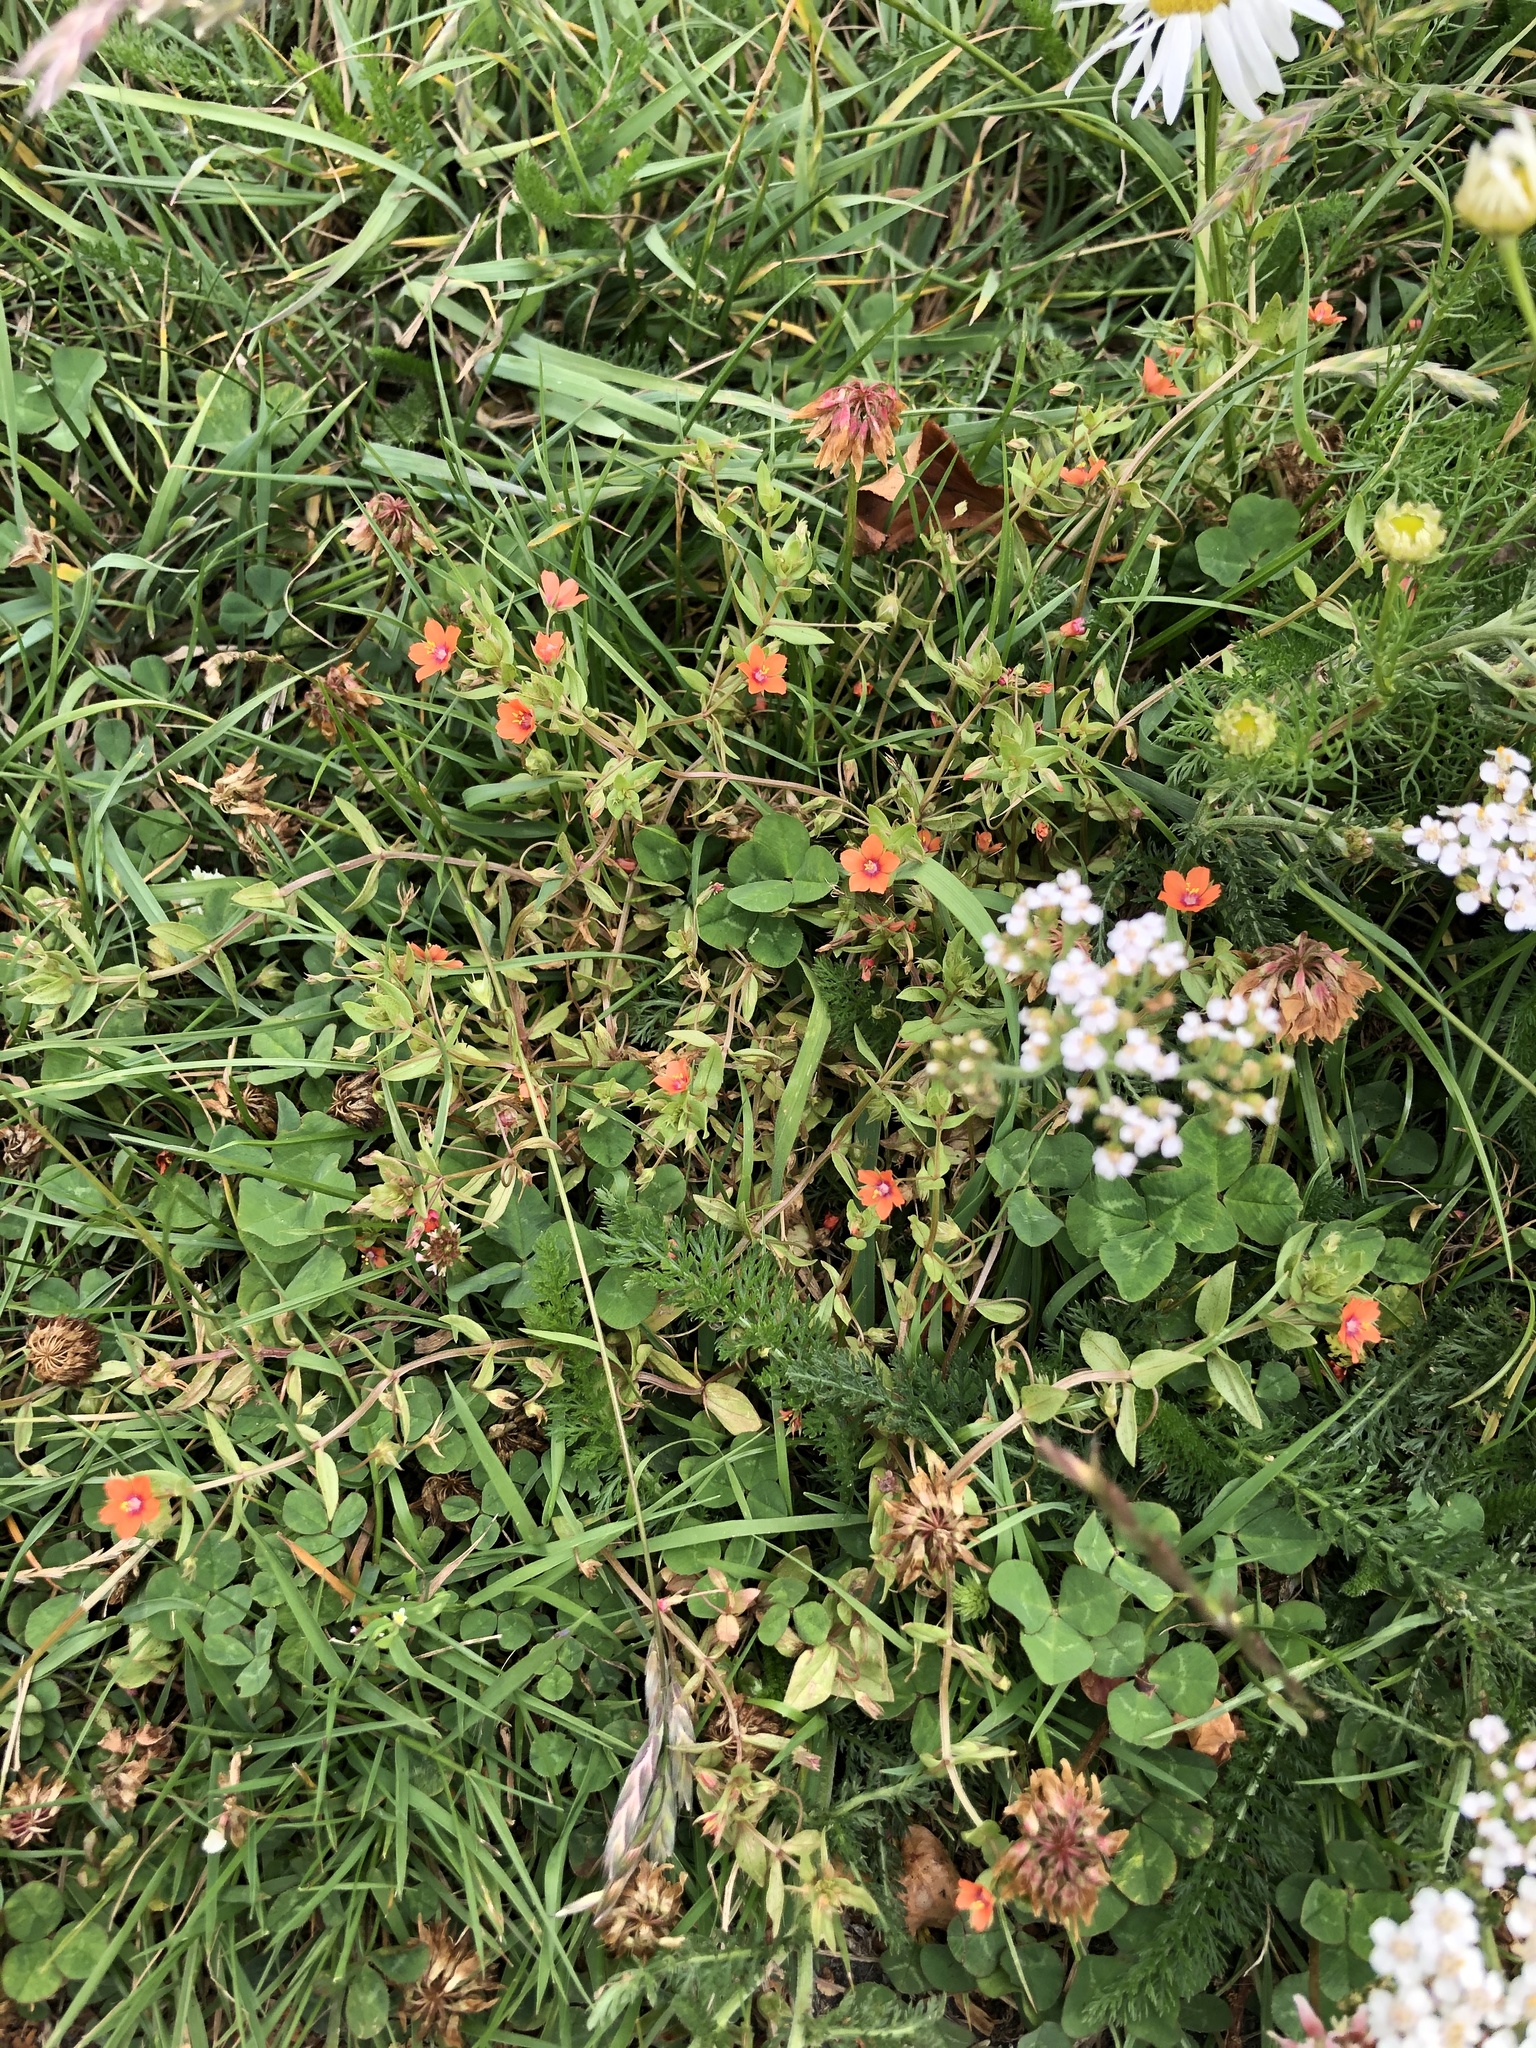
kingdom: Plantae
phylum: Tracheophyta
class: Magnoliopsida
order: Ericales
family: Primulaceae
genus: Lysimachia
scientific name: Lysimachia arvensis
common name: Scarlet pimpernel
